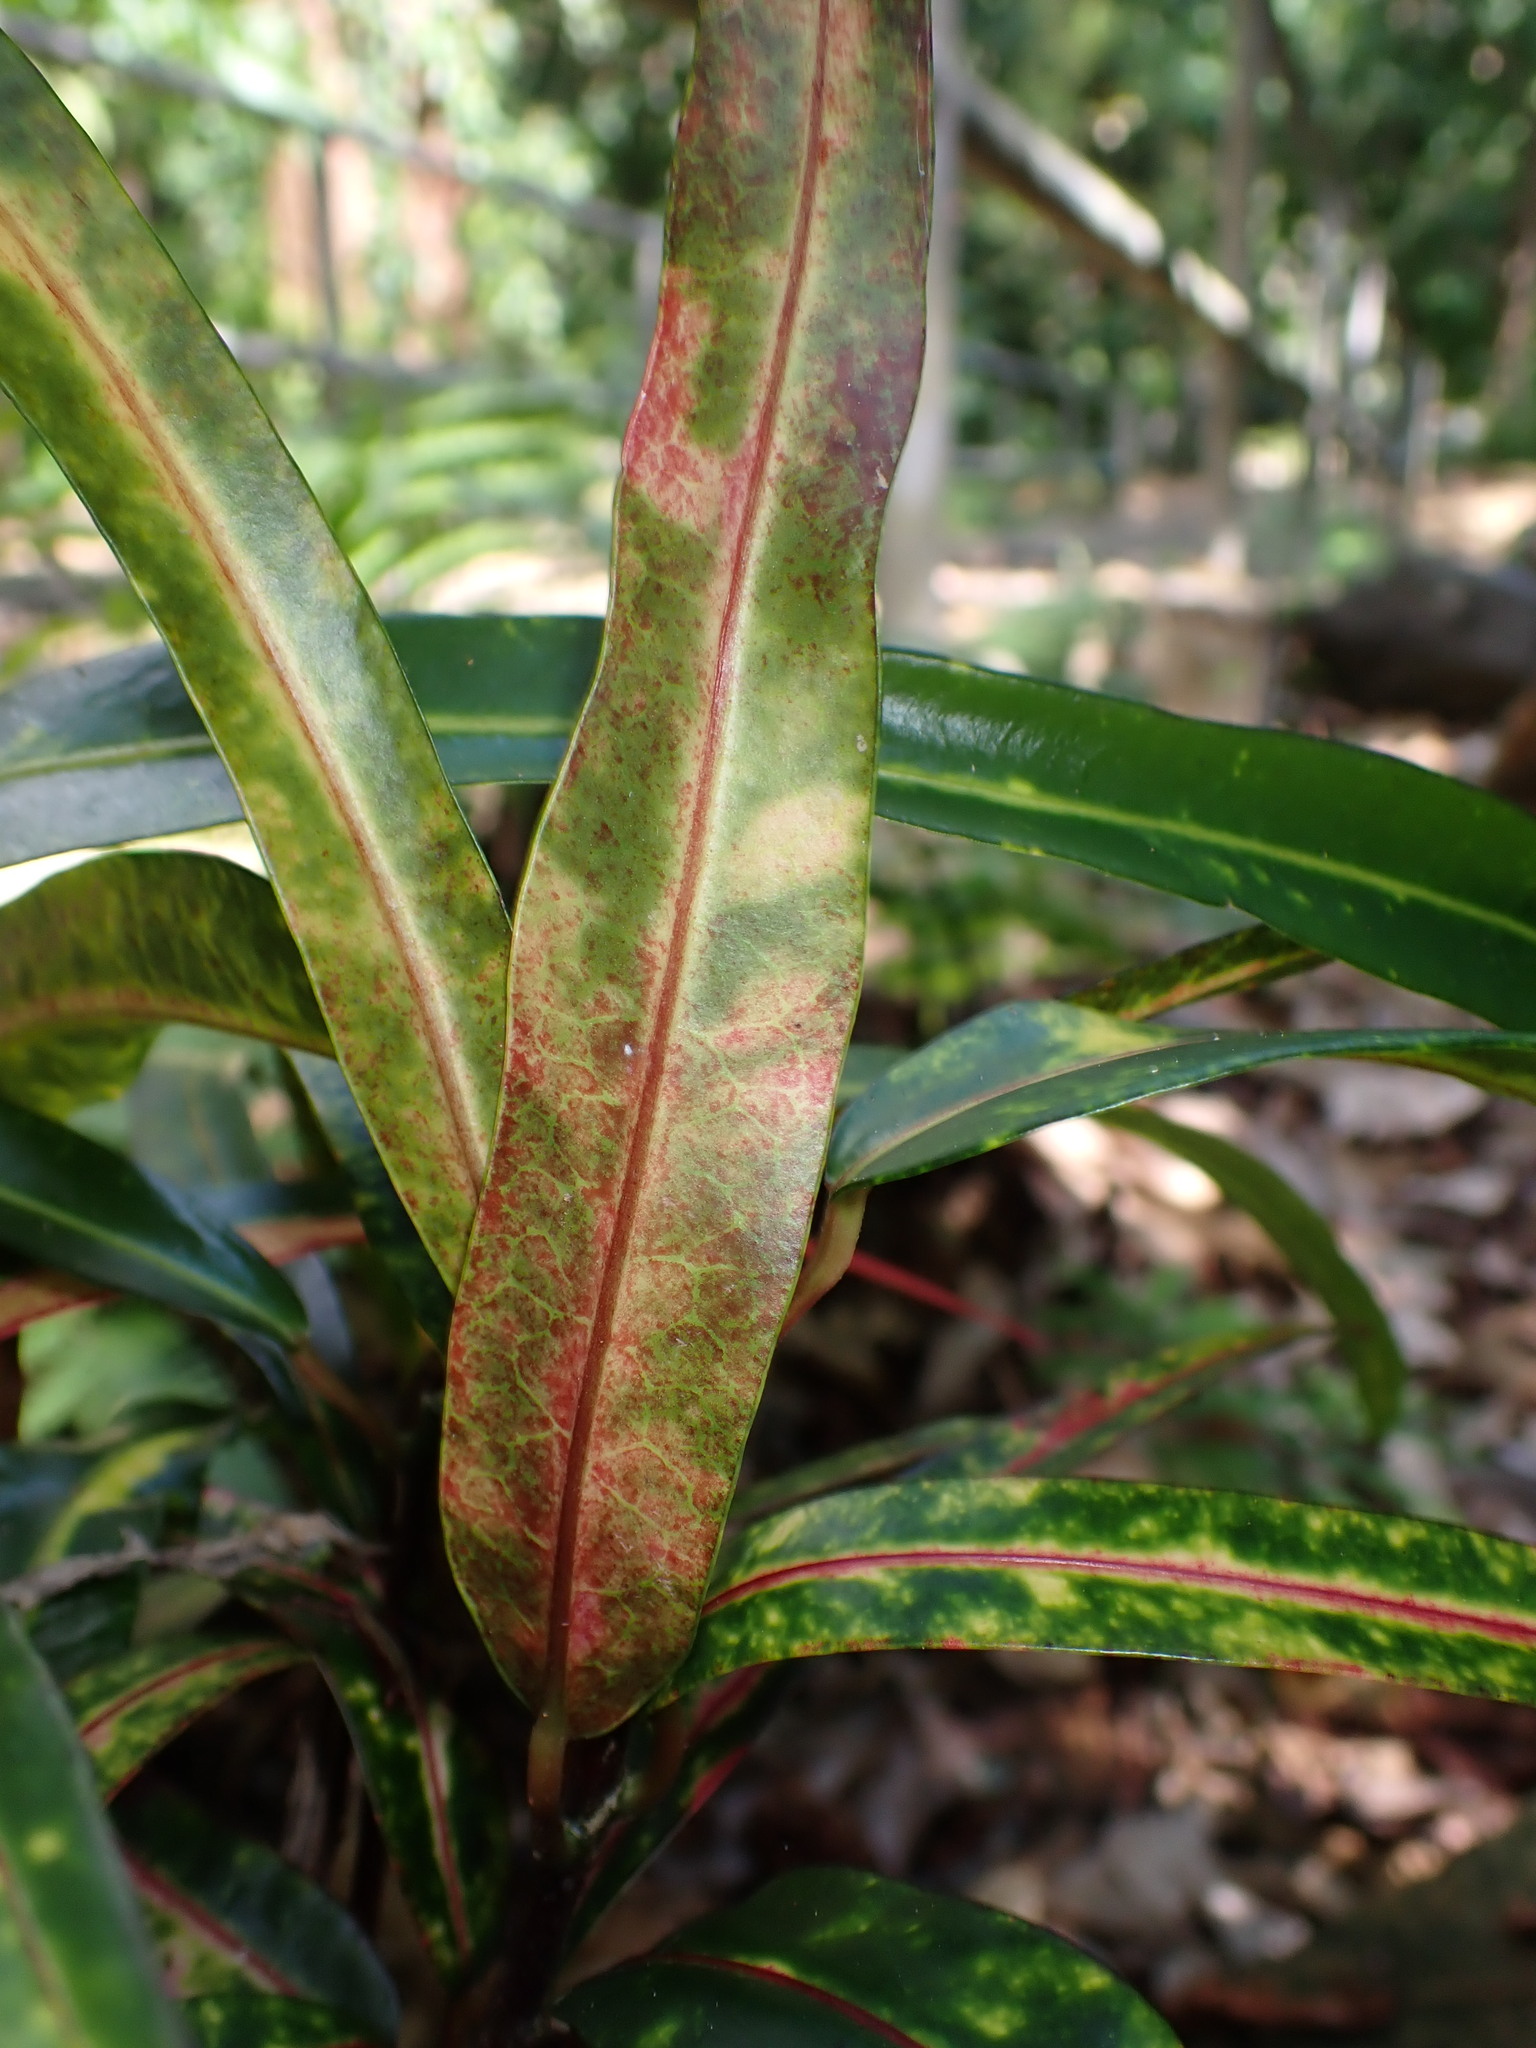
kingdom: Plantae
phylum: Tracheophyta
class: Magnoliopsida
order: Malpighiales
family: Euphorbiaceae
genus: Codiaeum
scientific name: Codiaeum variegatum
